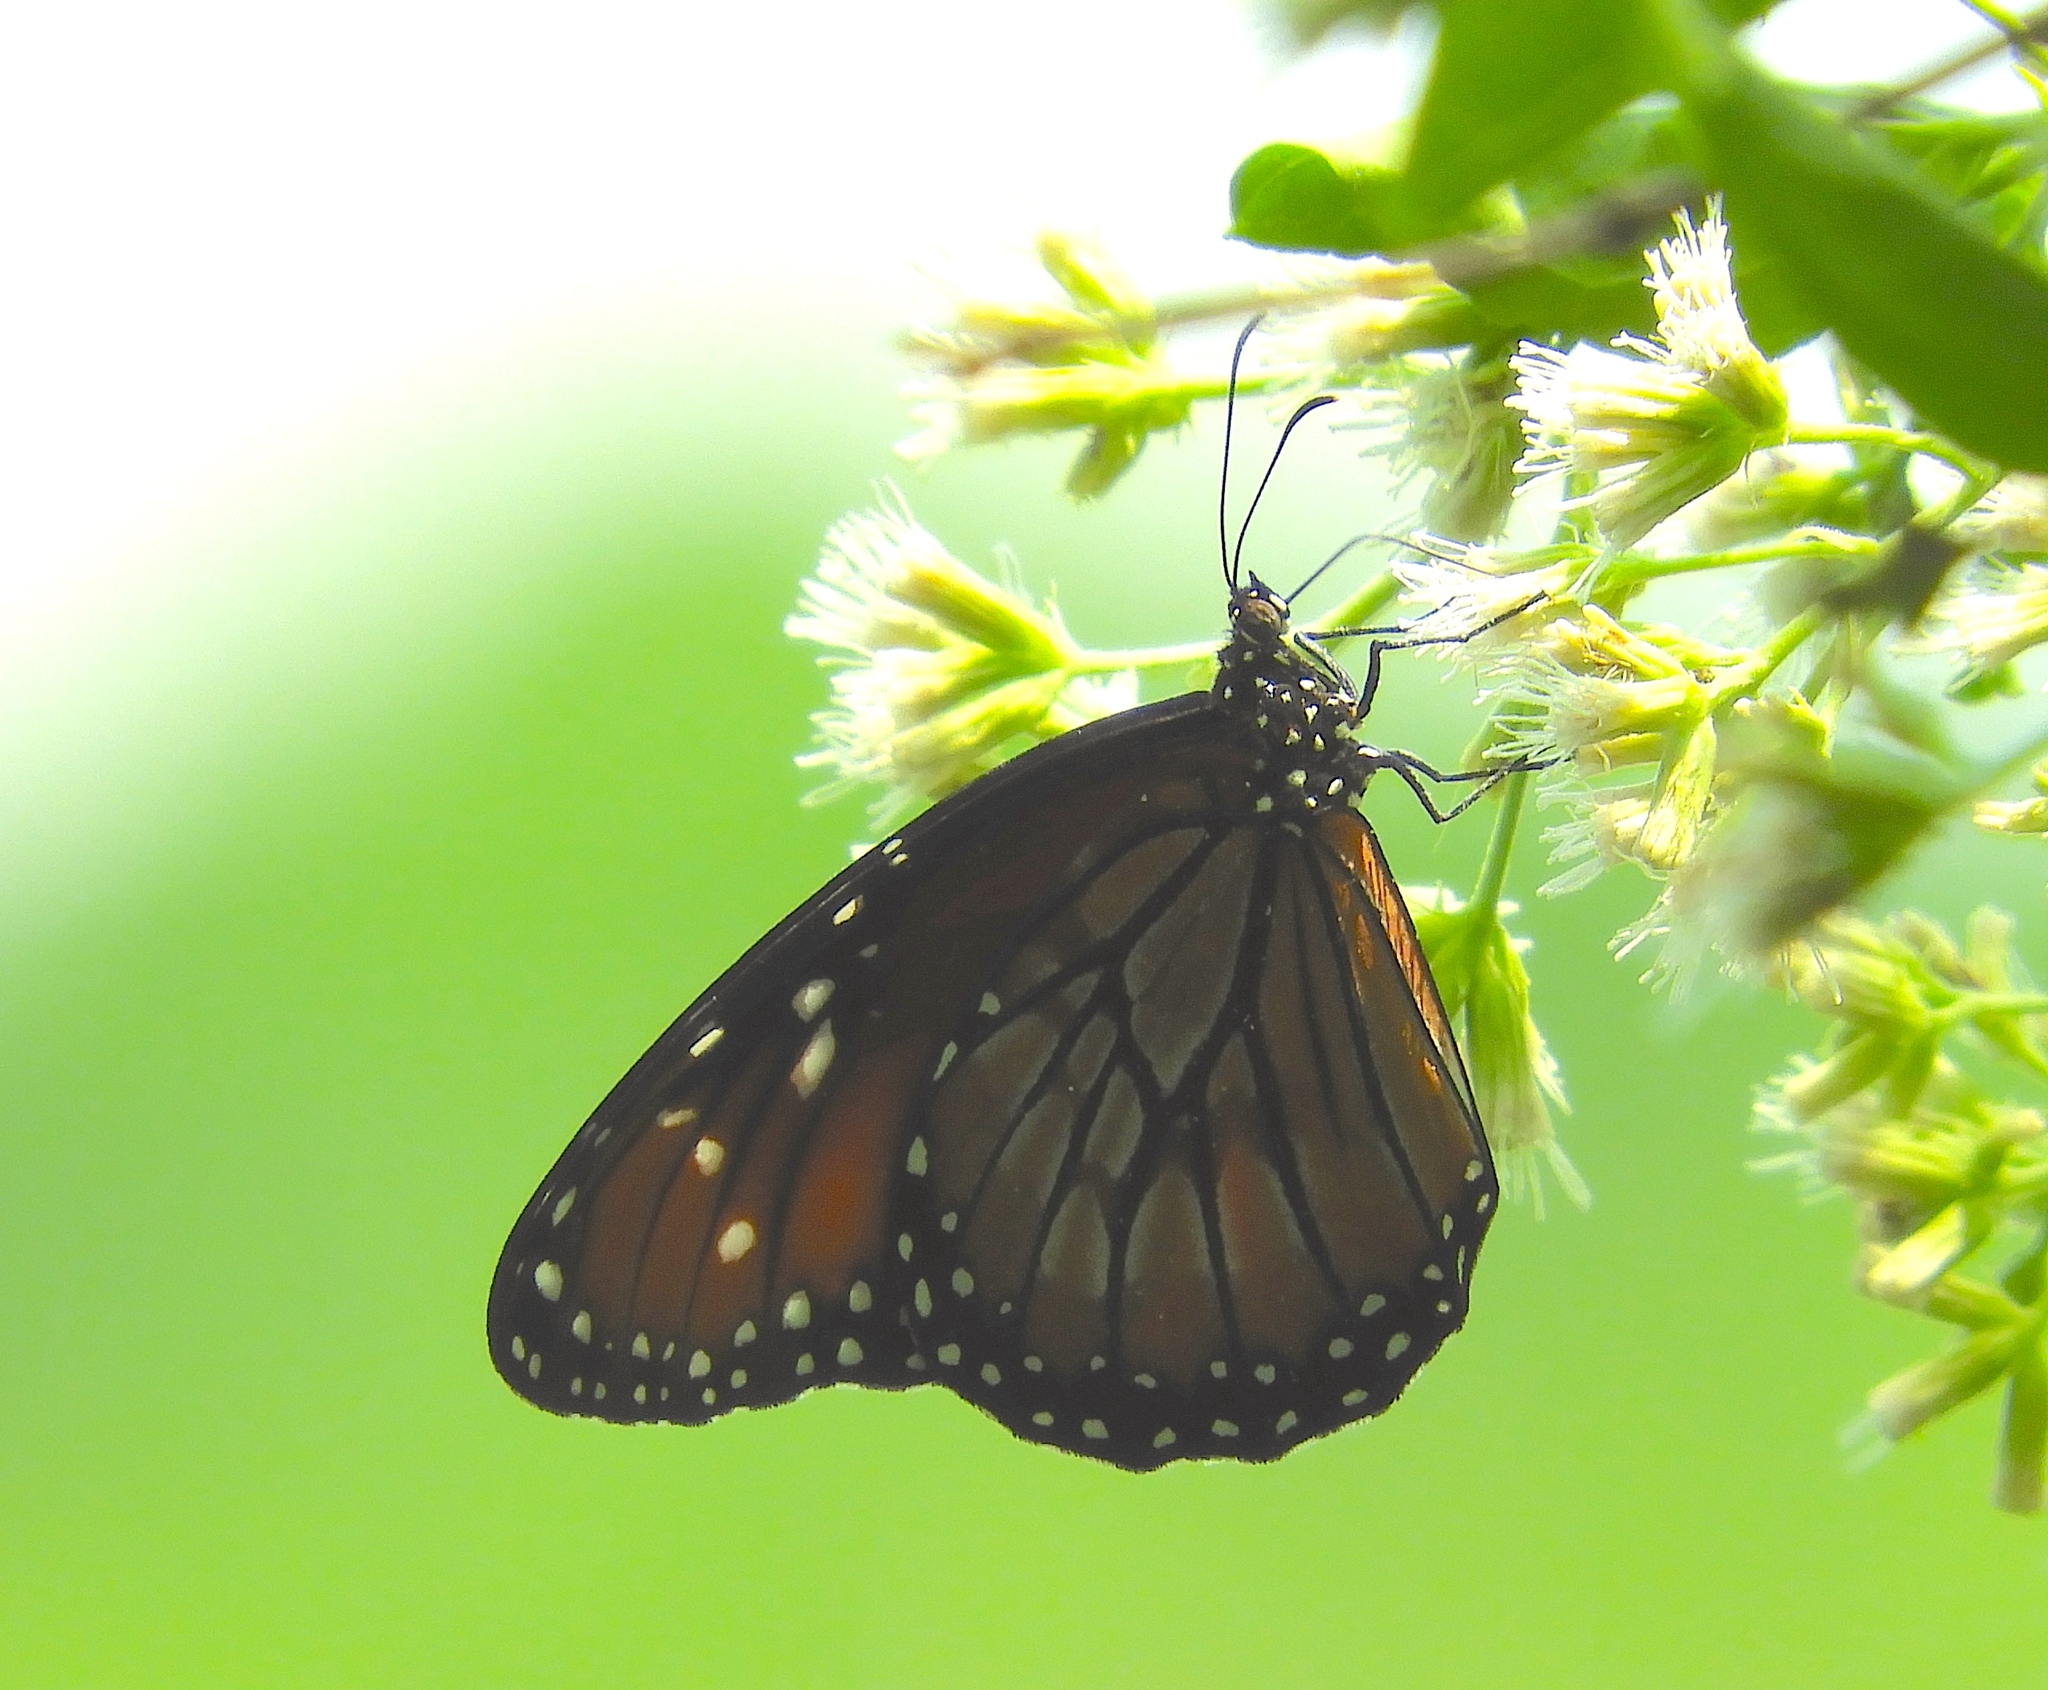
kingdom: Animalia
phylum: Arthropoda
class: Insecta
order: Lepidoptera
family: Nymphalidae
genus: Danaus
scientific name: Danaus gilippus
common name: Queen
